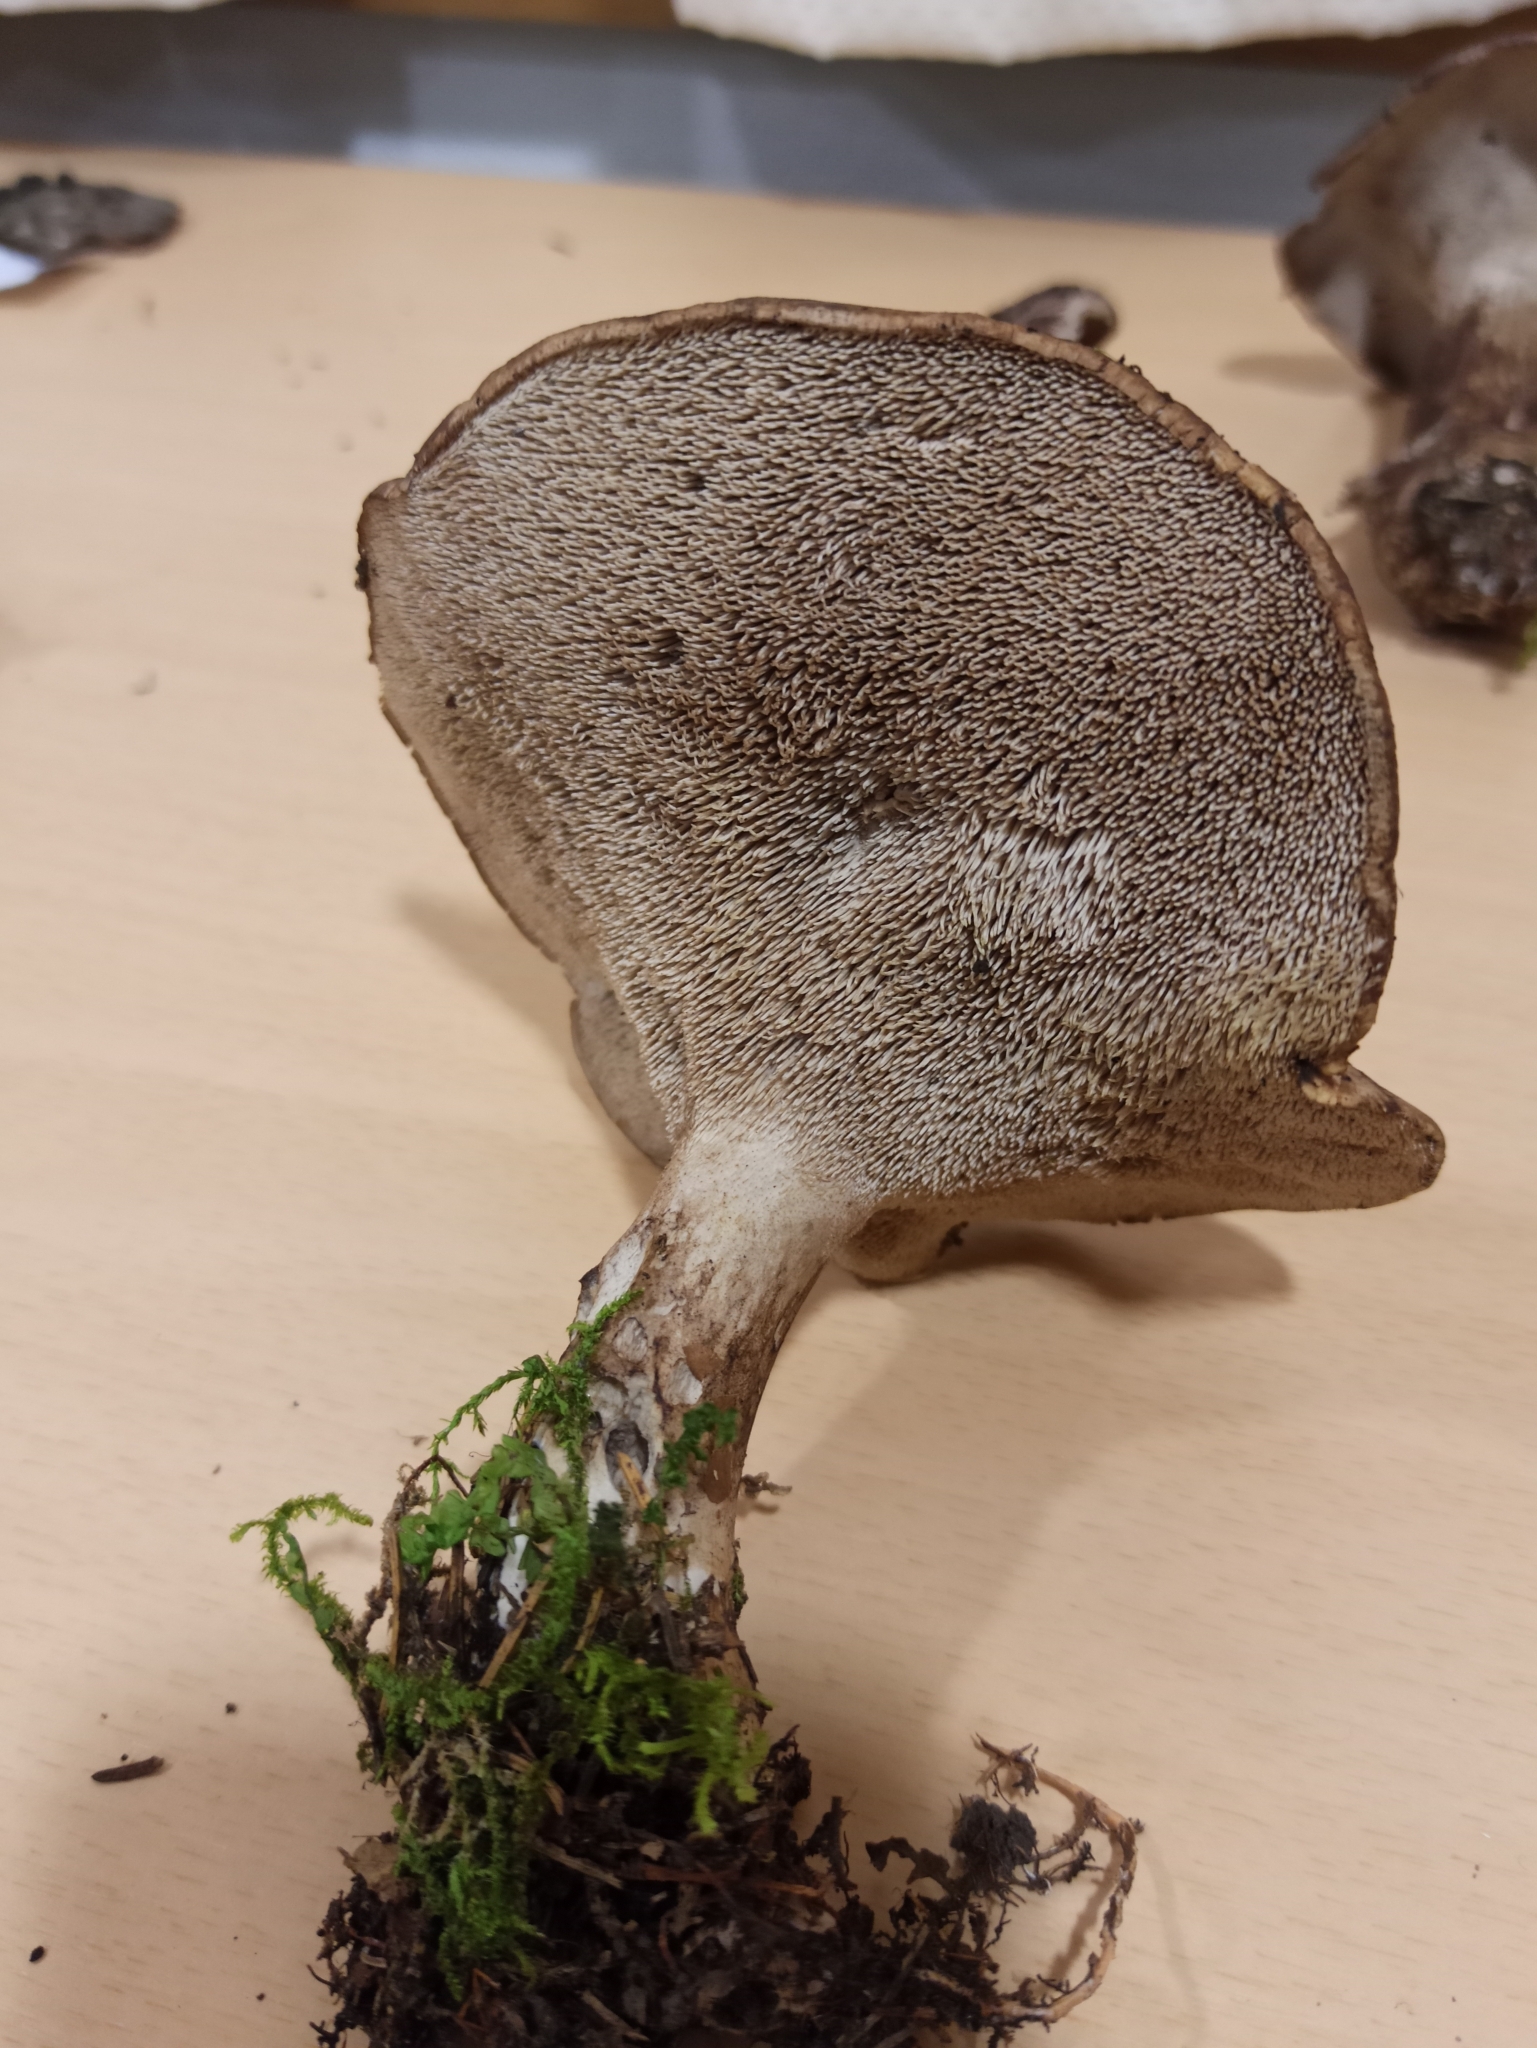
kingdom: Fungi
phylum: Basidiomycota
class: Agaricomycetes
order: Thelephorales
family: Bankeraceae
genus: Sarcodon
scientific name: Sarcodon imbricatus
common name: Shingled hedgehog
